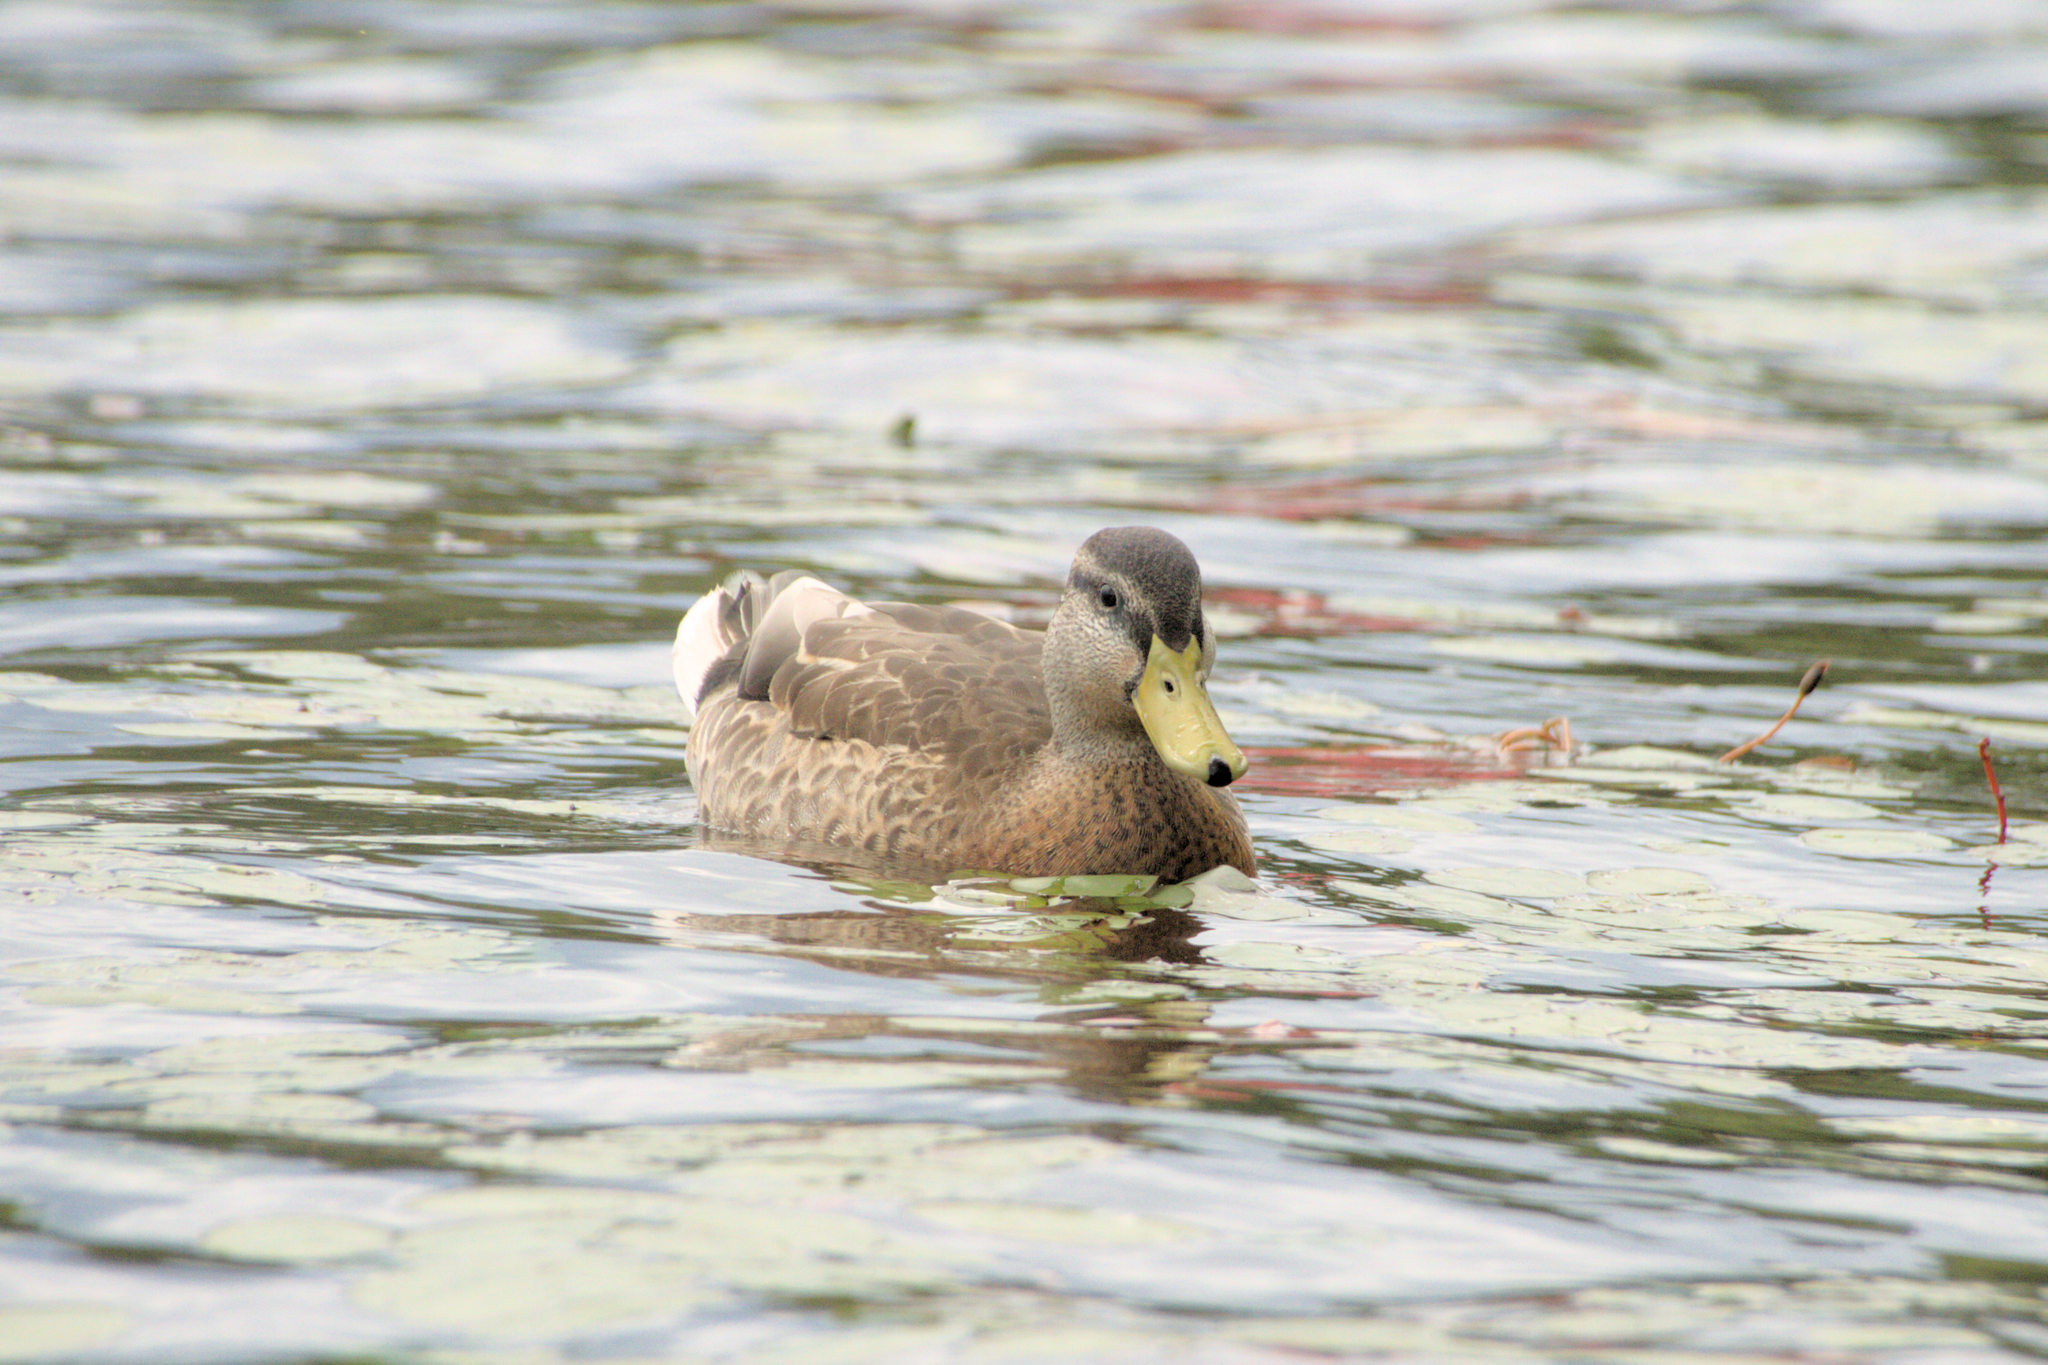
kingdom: Animalia
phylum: Chordata
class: Aves
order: Anseriformes
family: Anatidae
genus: Anas
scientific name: Anas platyrhynchos
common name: Mallard
